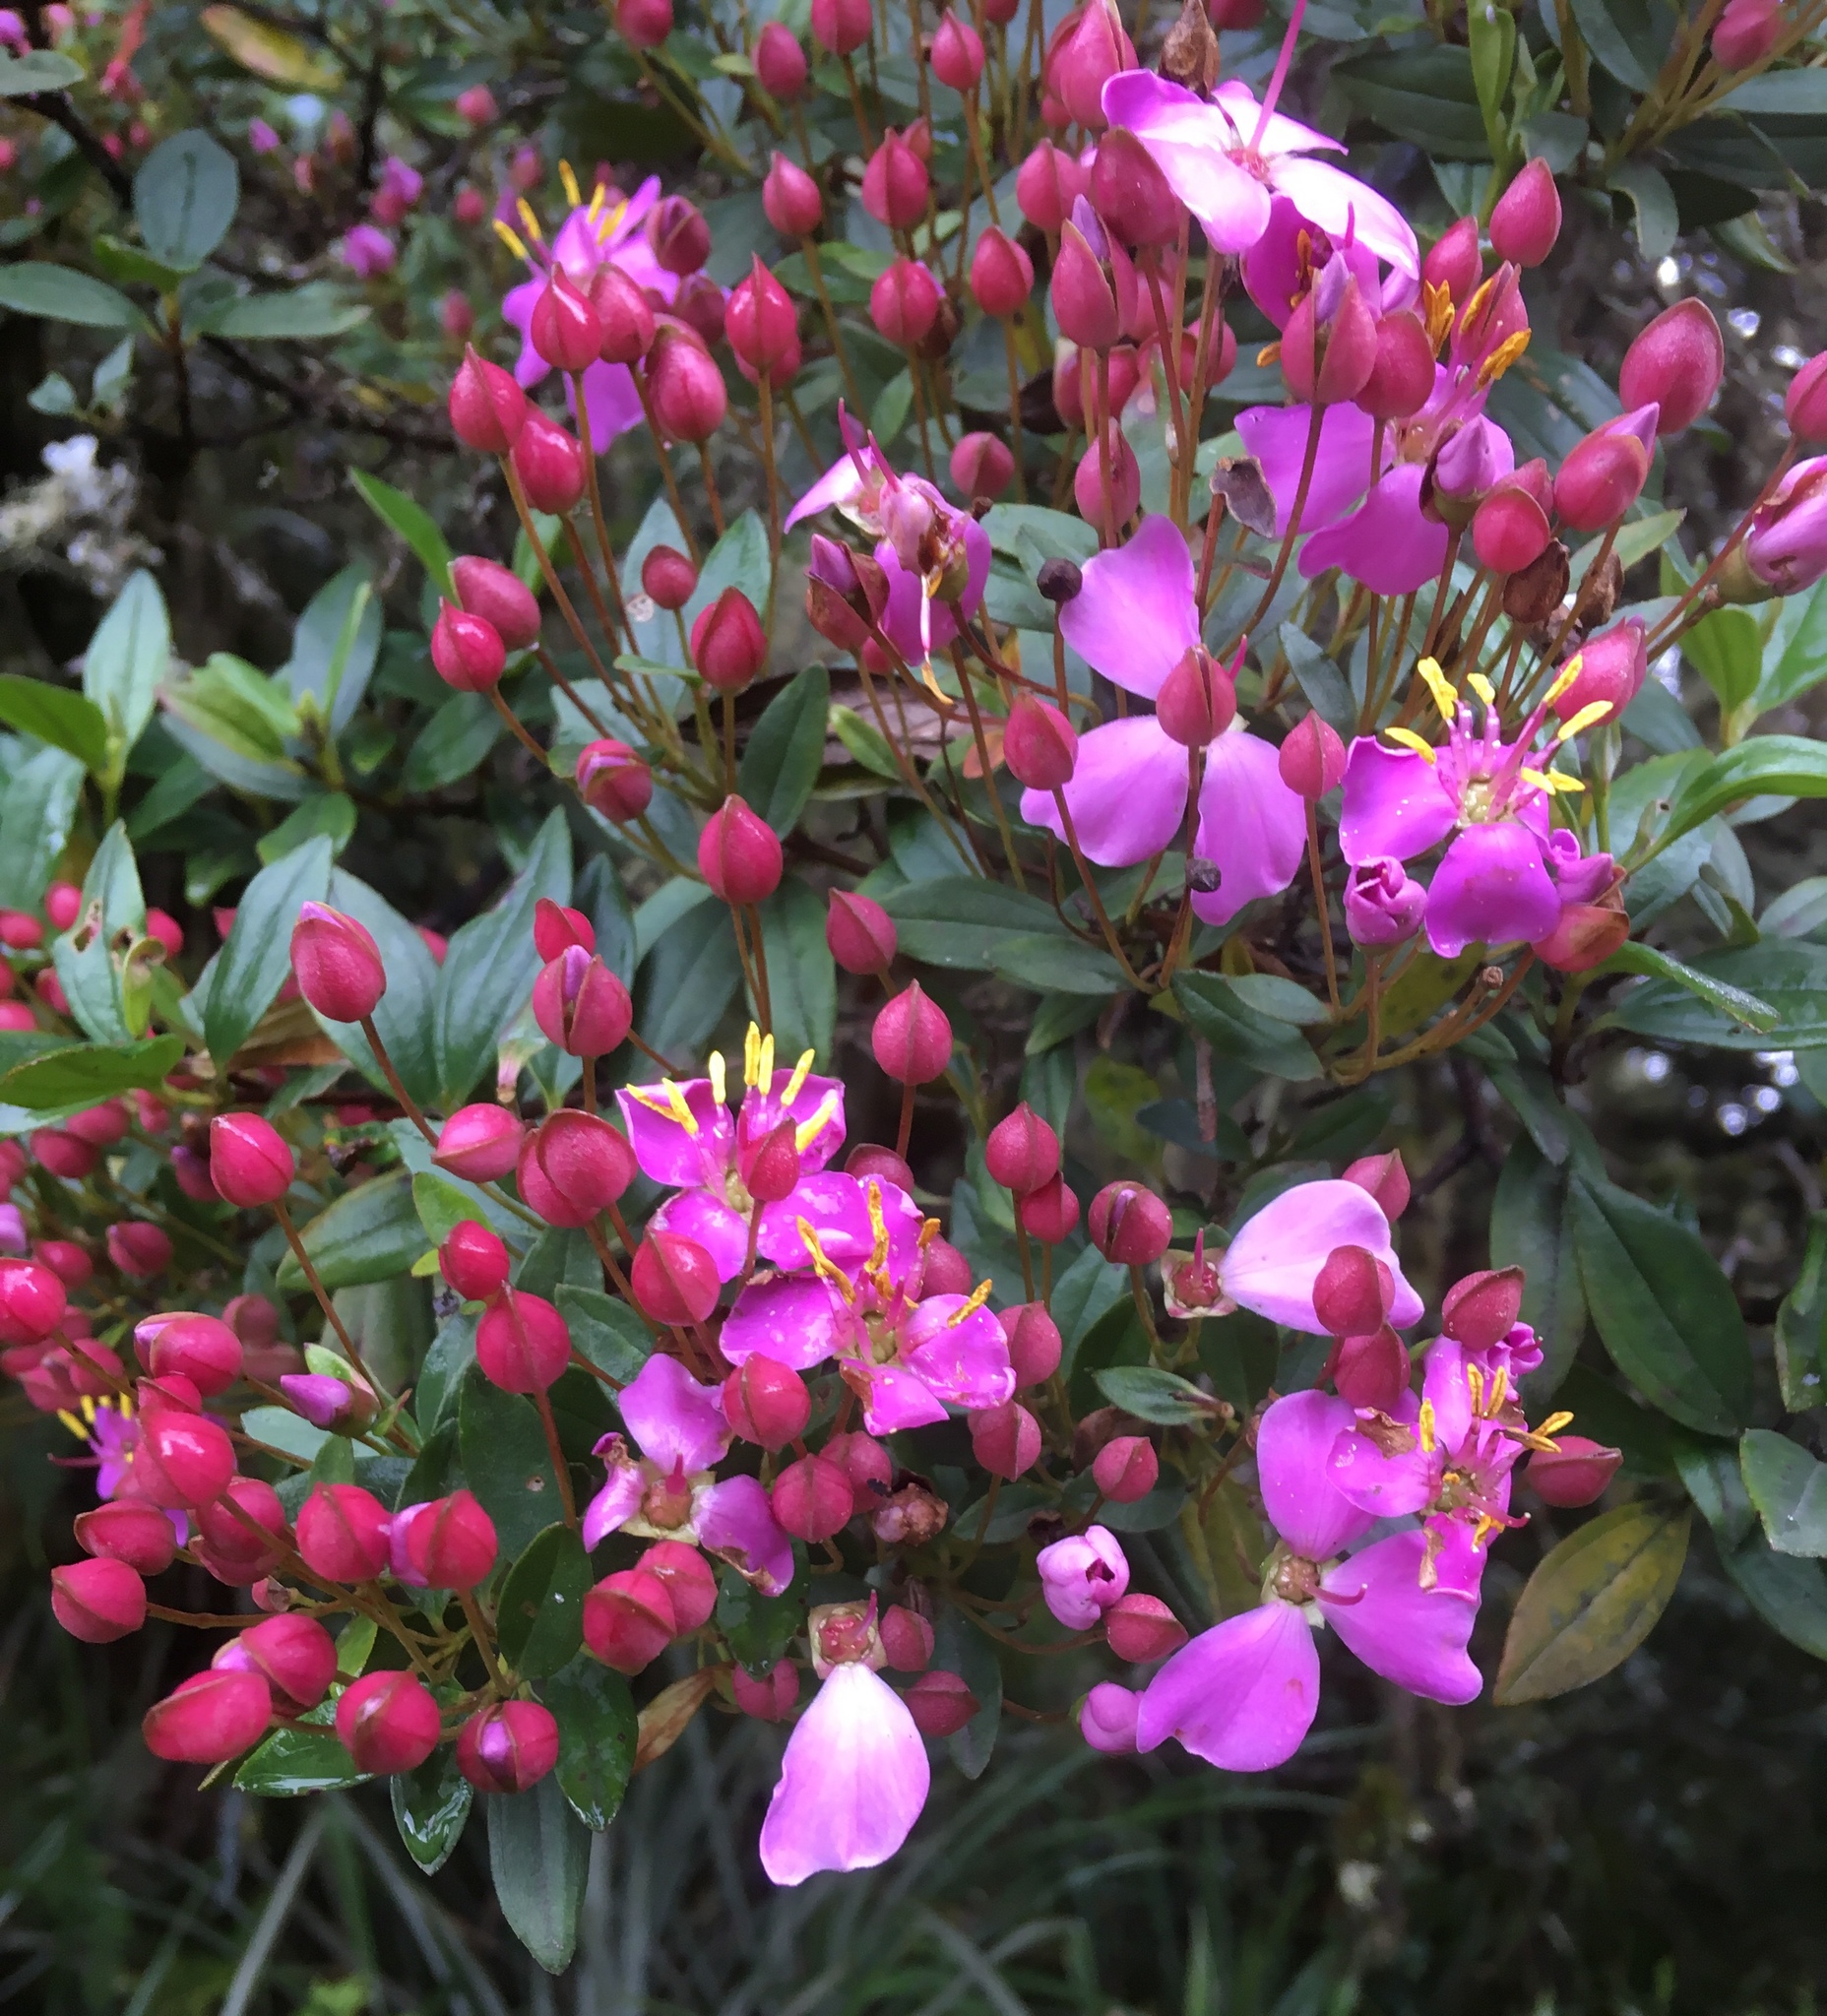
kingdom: Plantae
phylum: Tracheophyta
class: Magnoliopsida
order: Myrtales
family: Melastomataceae
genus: Bucquetia
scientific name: Bucquetia glutinosa
